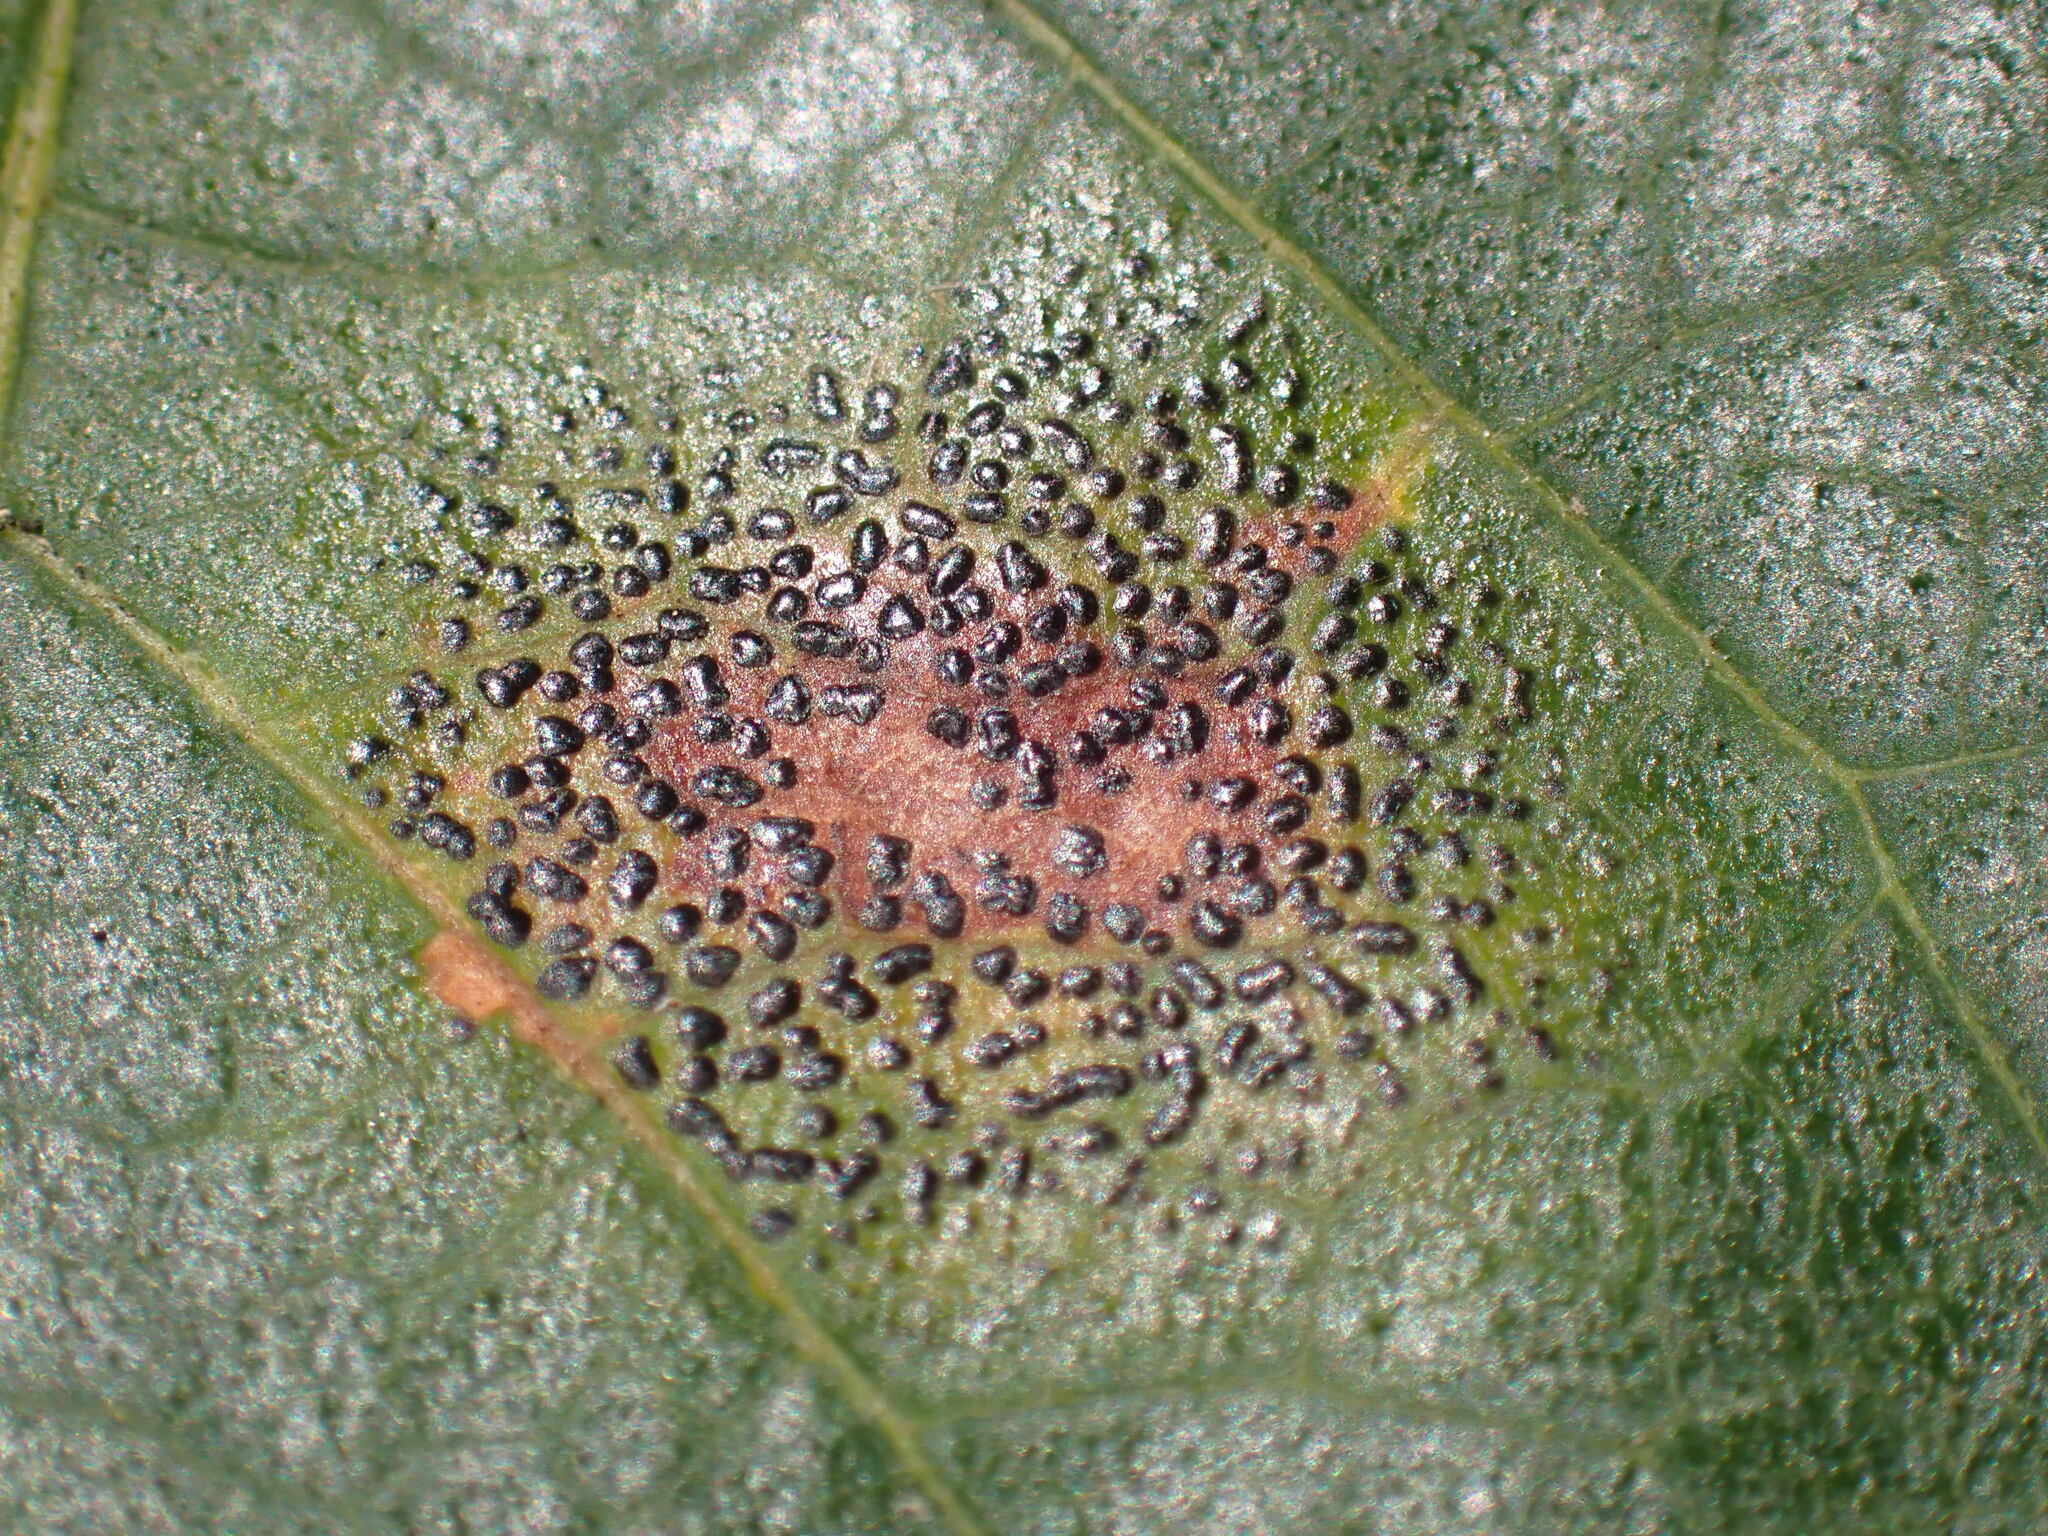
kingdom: Fungi
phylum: Ascomycota
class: Leotiomycetes
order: Rhytismatales
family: Rhytismataceae
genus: Rhytisma
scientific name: Rhytisma punctatum
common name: Speckled tar spot
